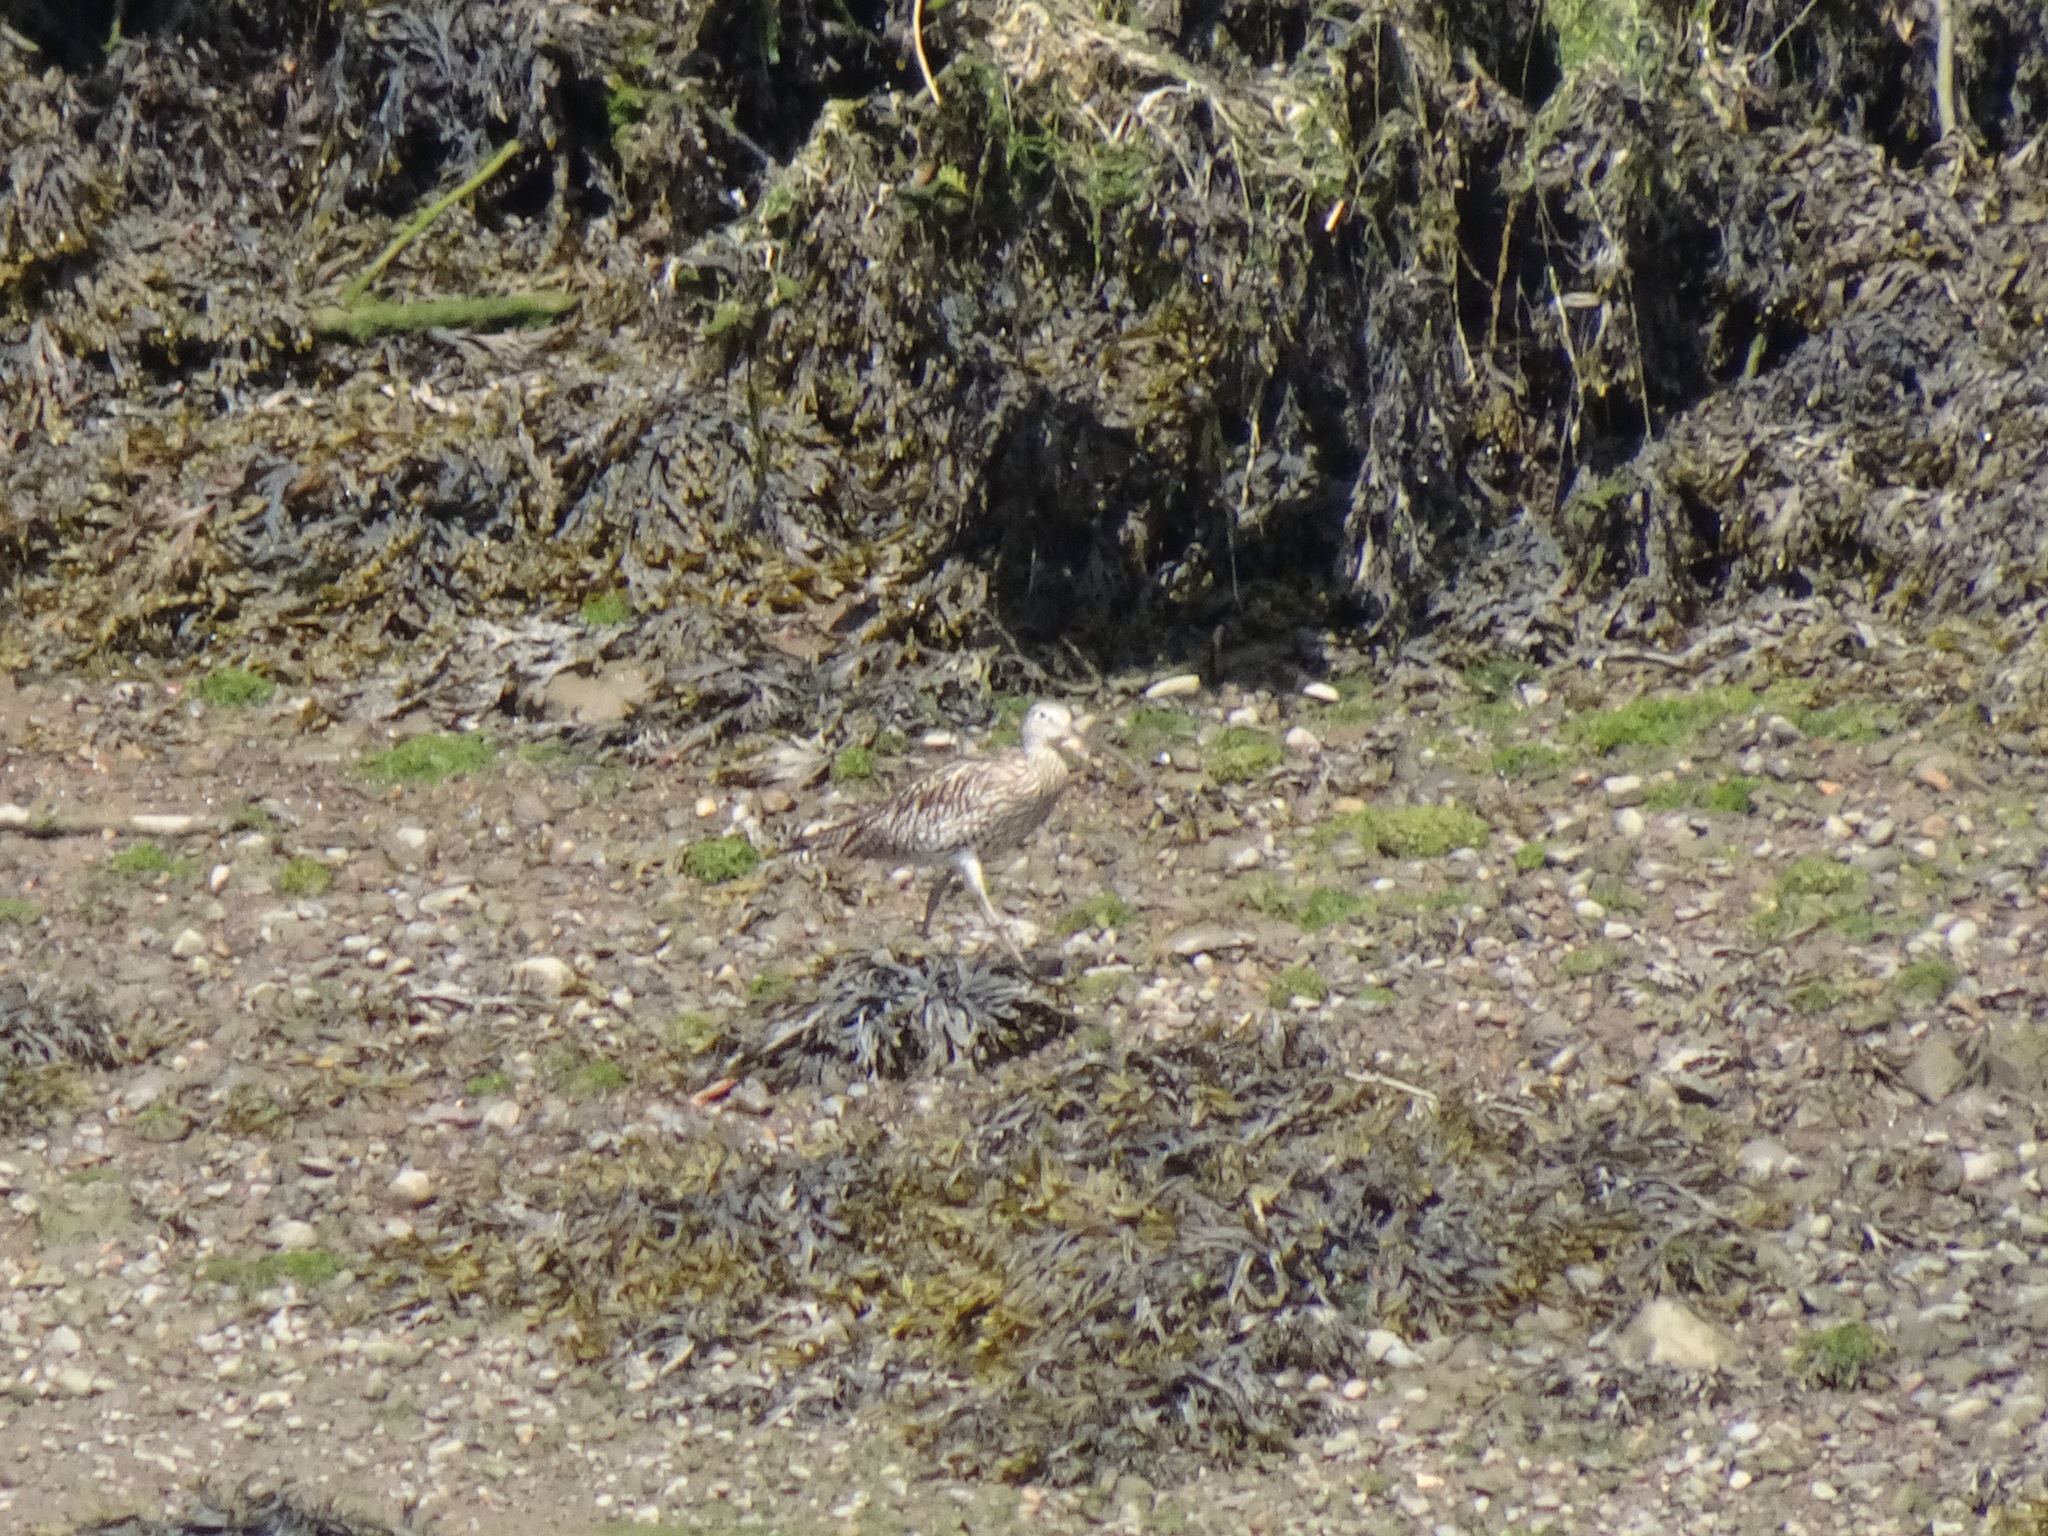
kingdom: Animalia
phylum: Chordata
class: Aves
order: Charadriiformes
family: Scolopacidae
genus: Numenius
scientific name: Numenius arquata
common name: Eurasian curlew
